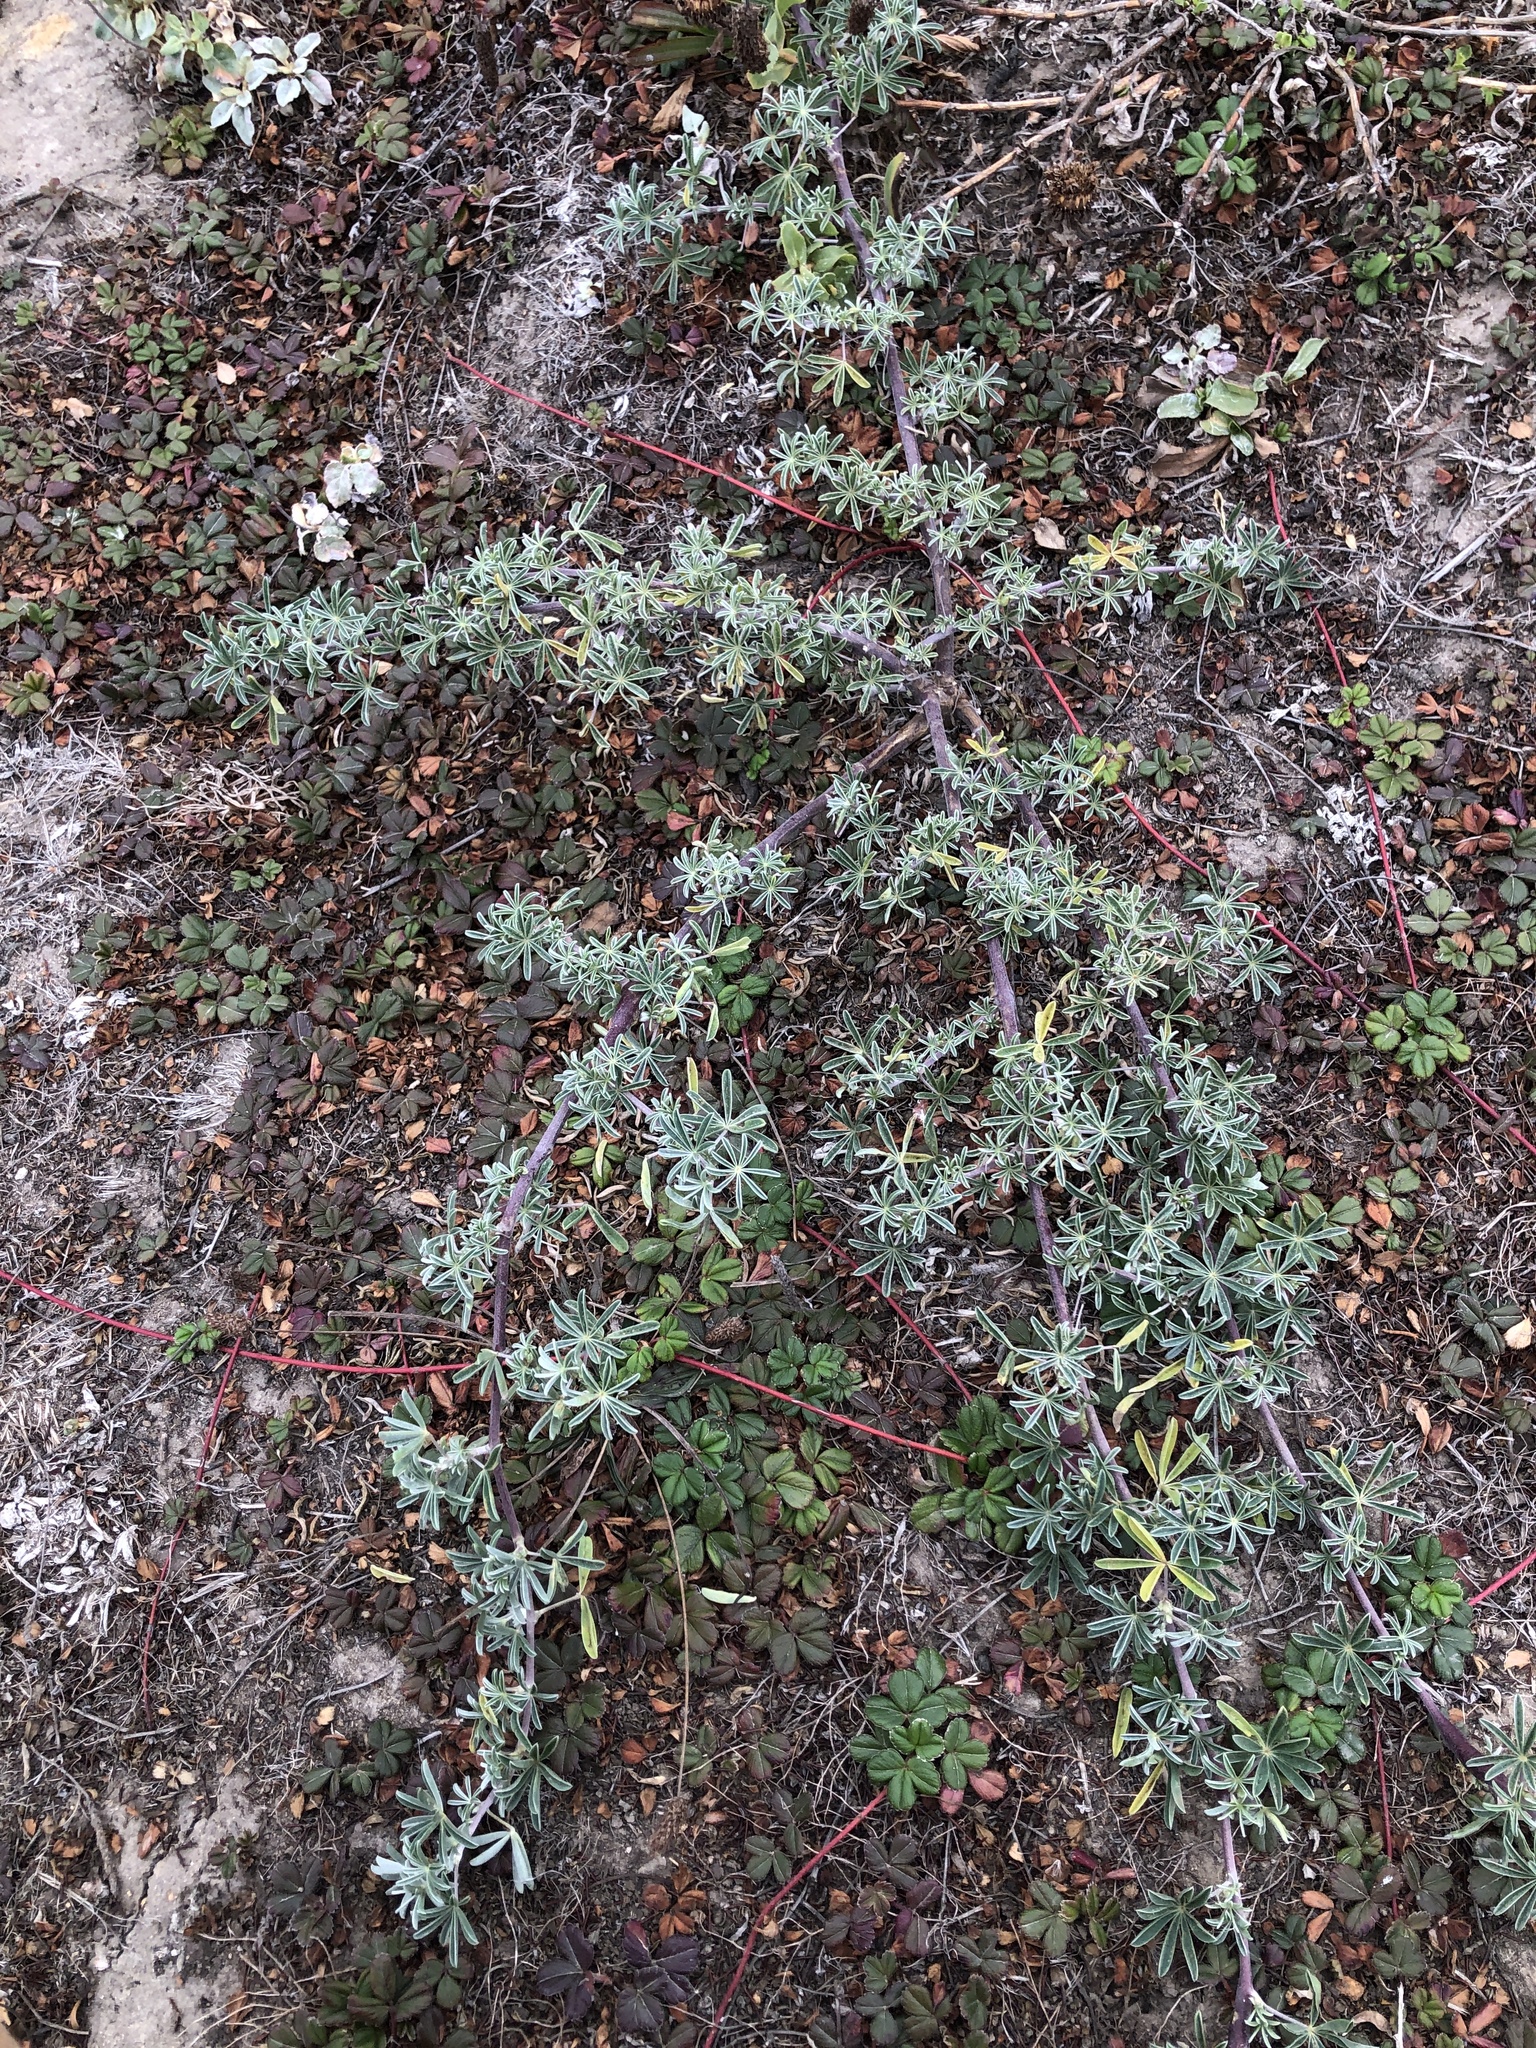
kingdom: Plantae
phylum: Tracheophyta
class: Magnoliopsida
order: Fabales
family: Fabaceae
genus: Lupinus
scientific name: Lupinus arboreus
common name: Yellow bush lupine
